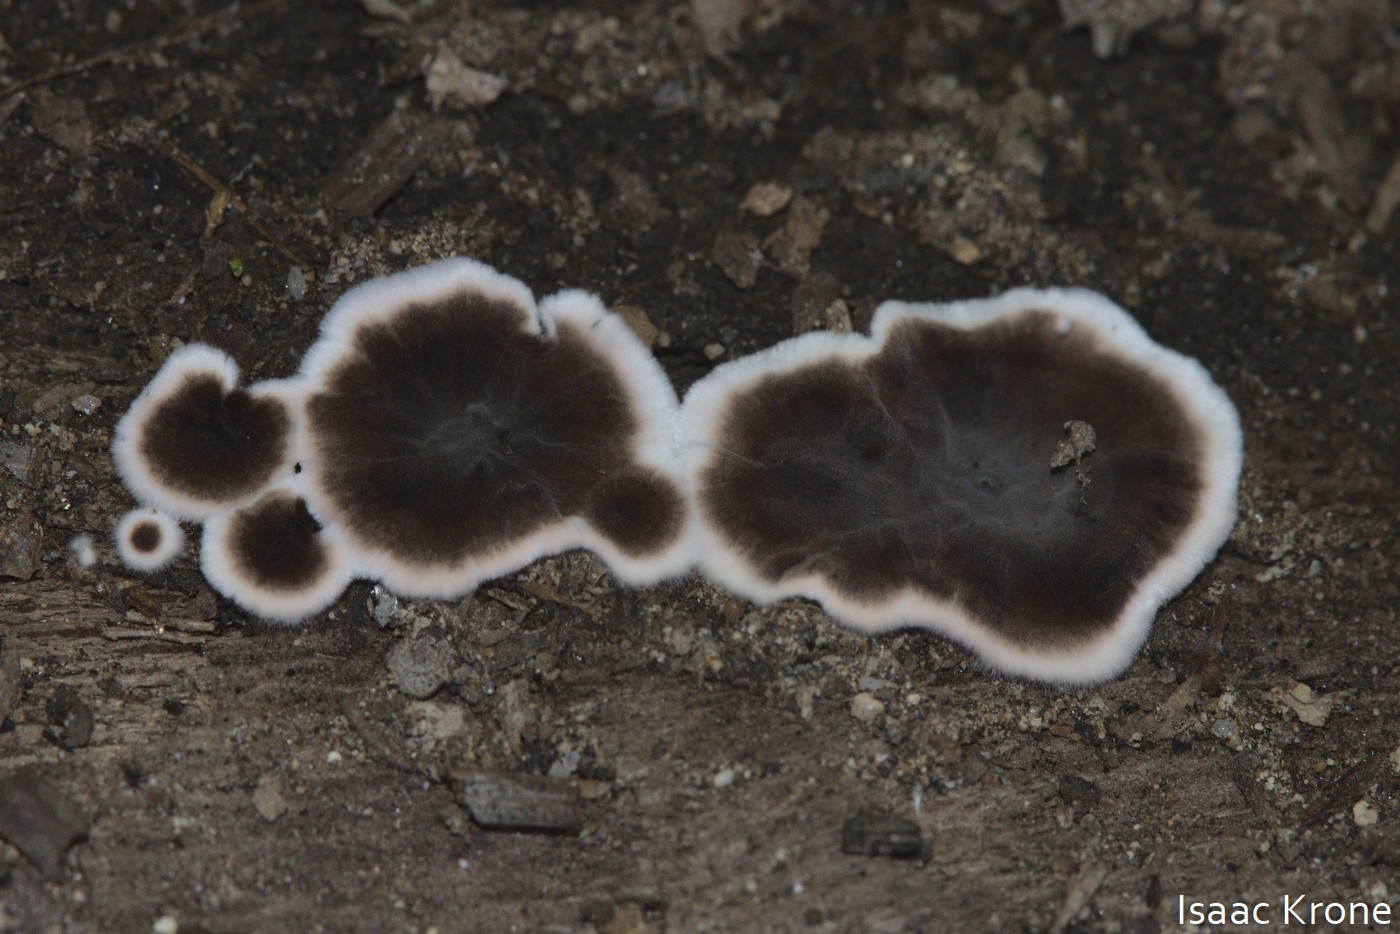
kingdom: Fungi
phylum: Basidiomycota
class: Agaricomycetes
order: Russulales
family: Peniophoraceae
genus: Peniophora
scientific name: Peniophora albobadia
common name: Giraffe spots
